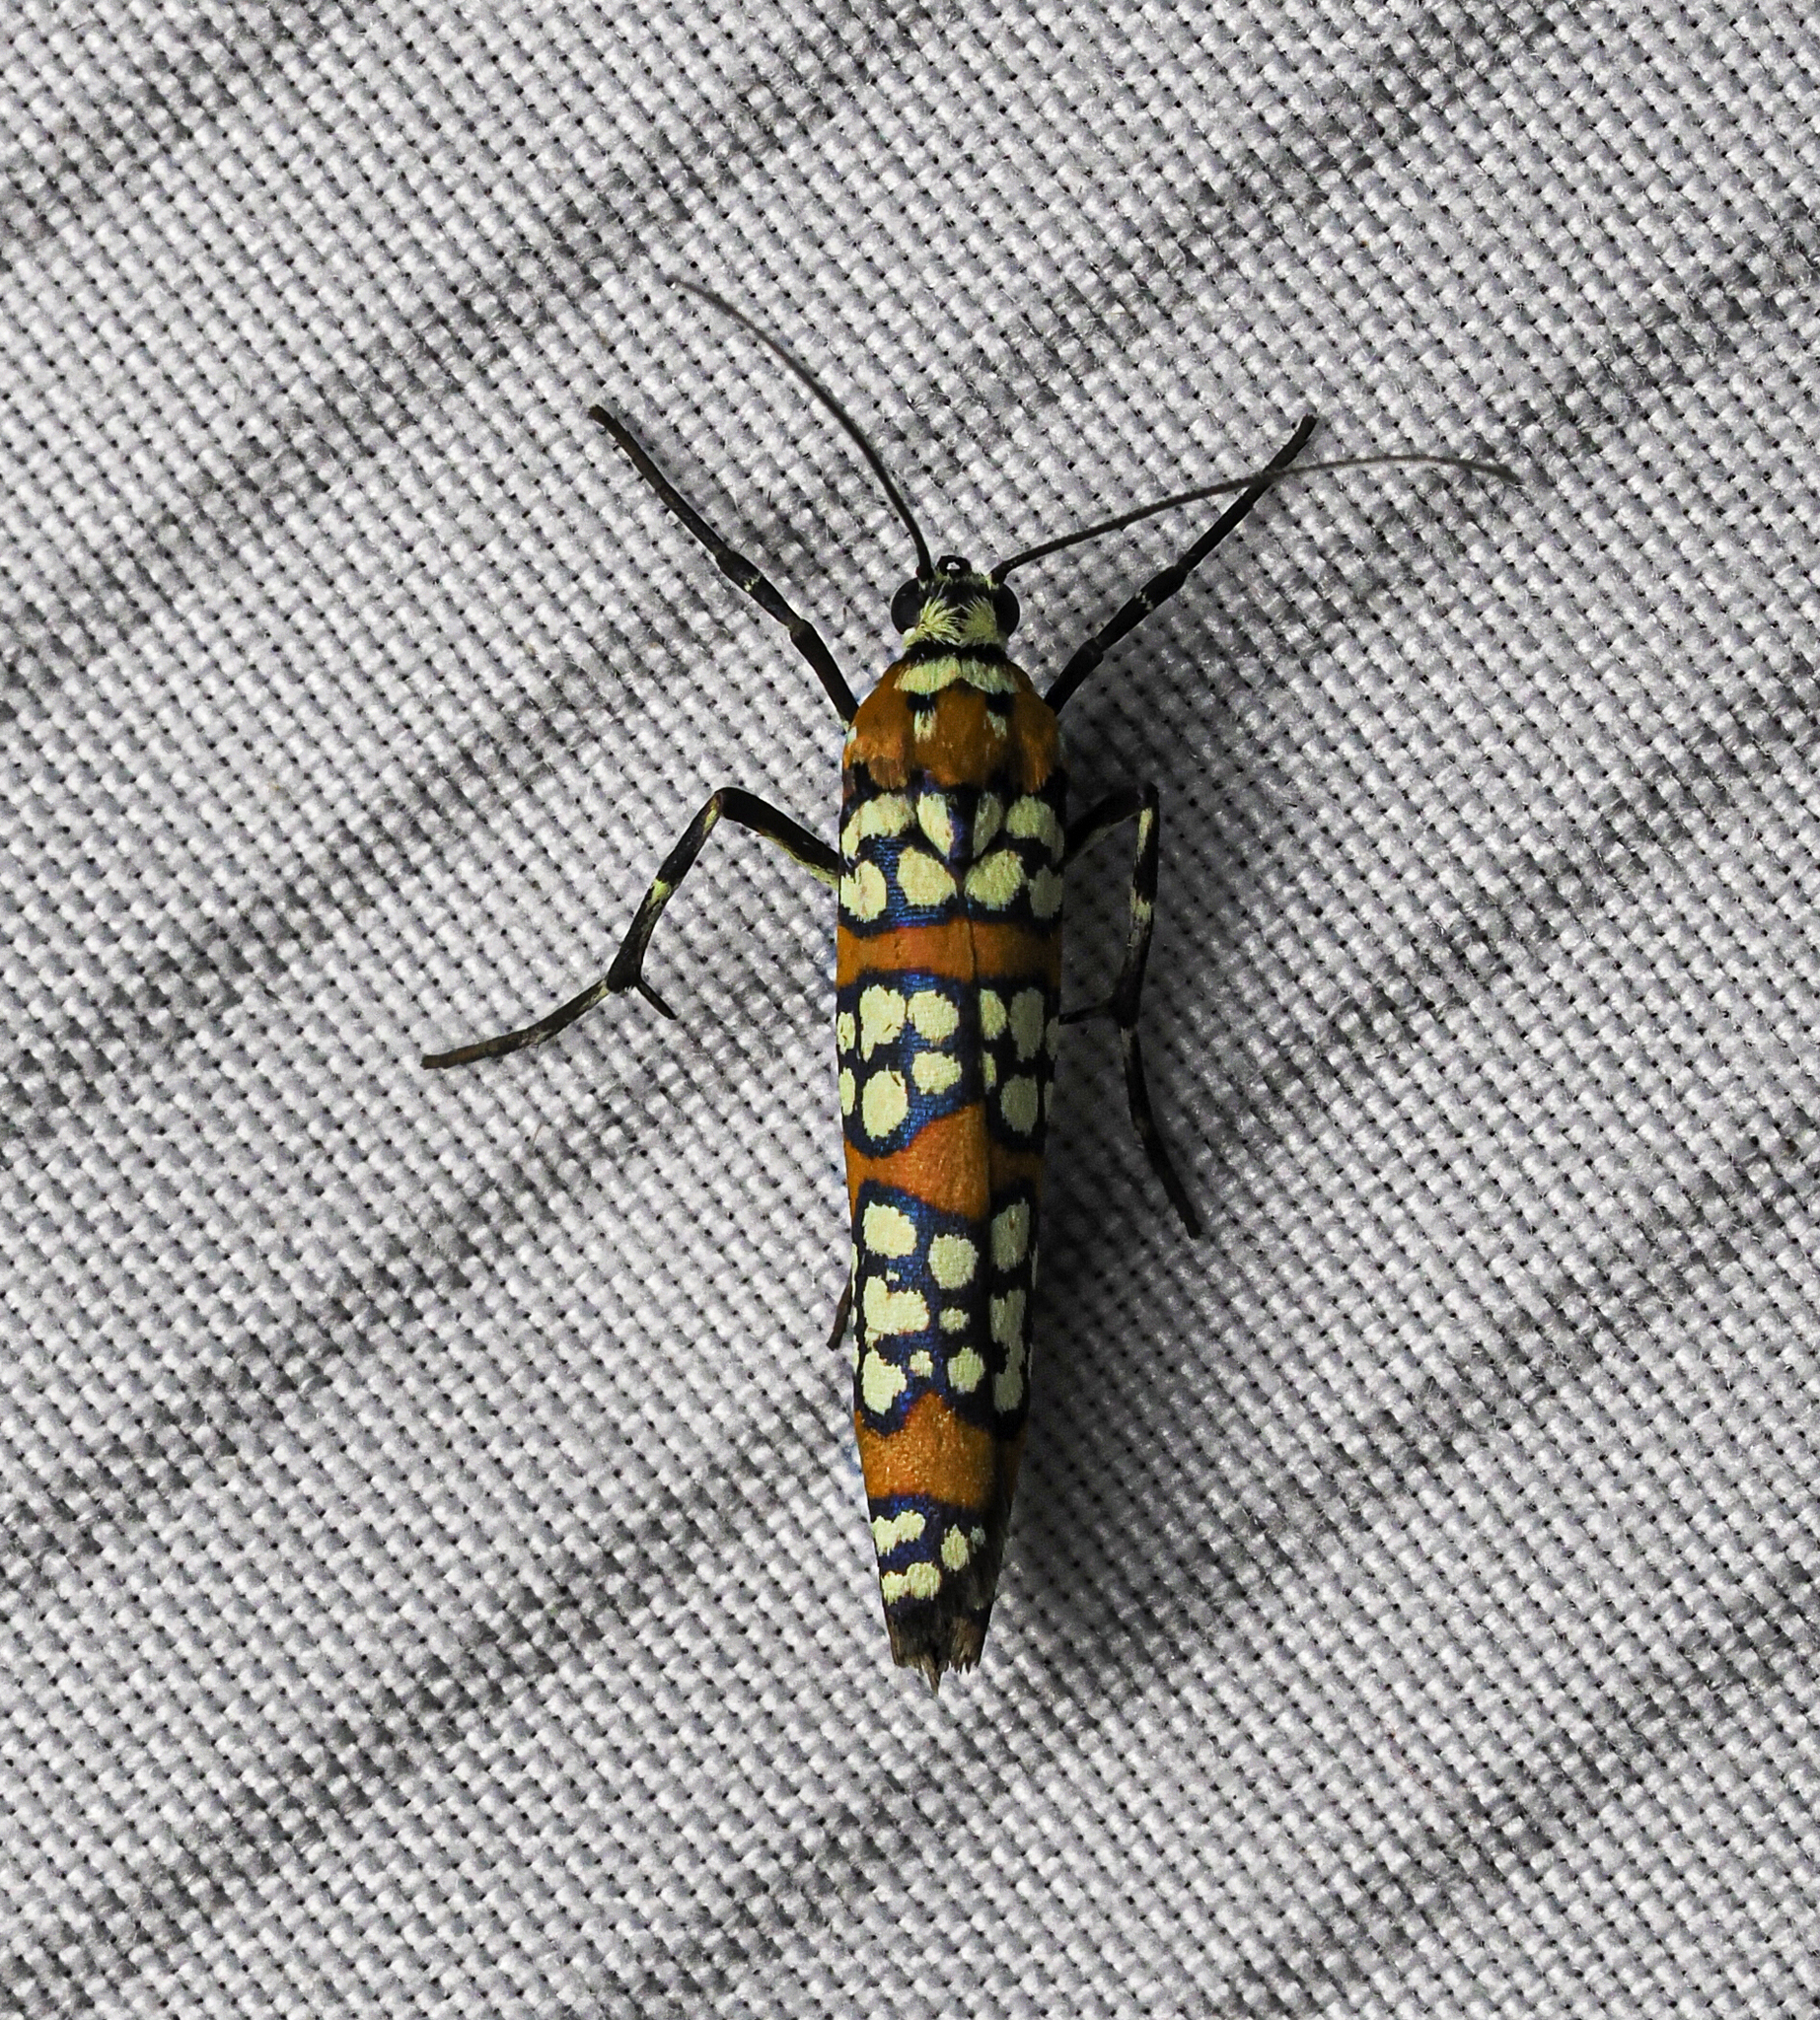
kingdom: Animalia
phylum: Arthropoda
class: Insecta
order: Lepidoptera
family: Attevidae
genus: Atteva
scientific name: Atteva punctella
